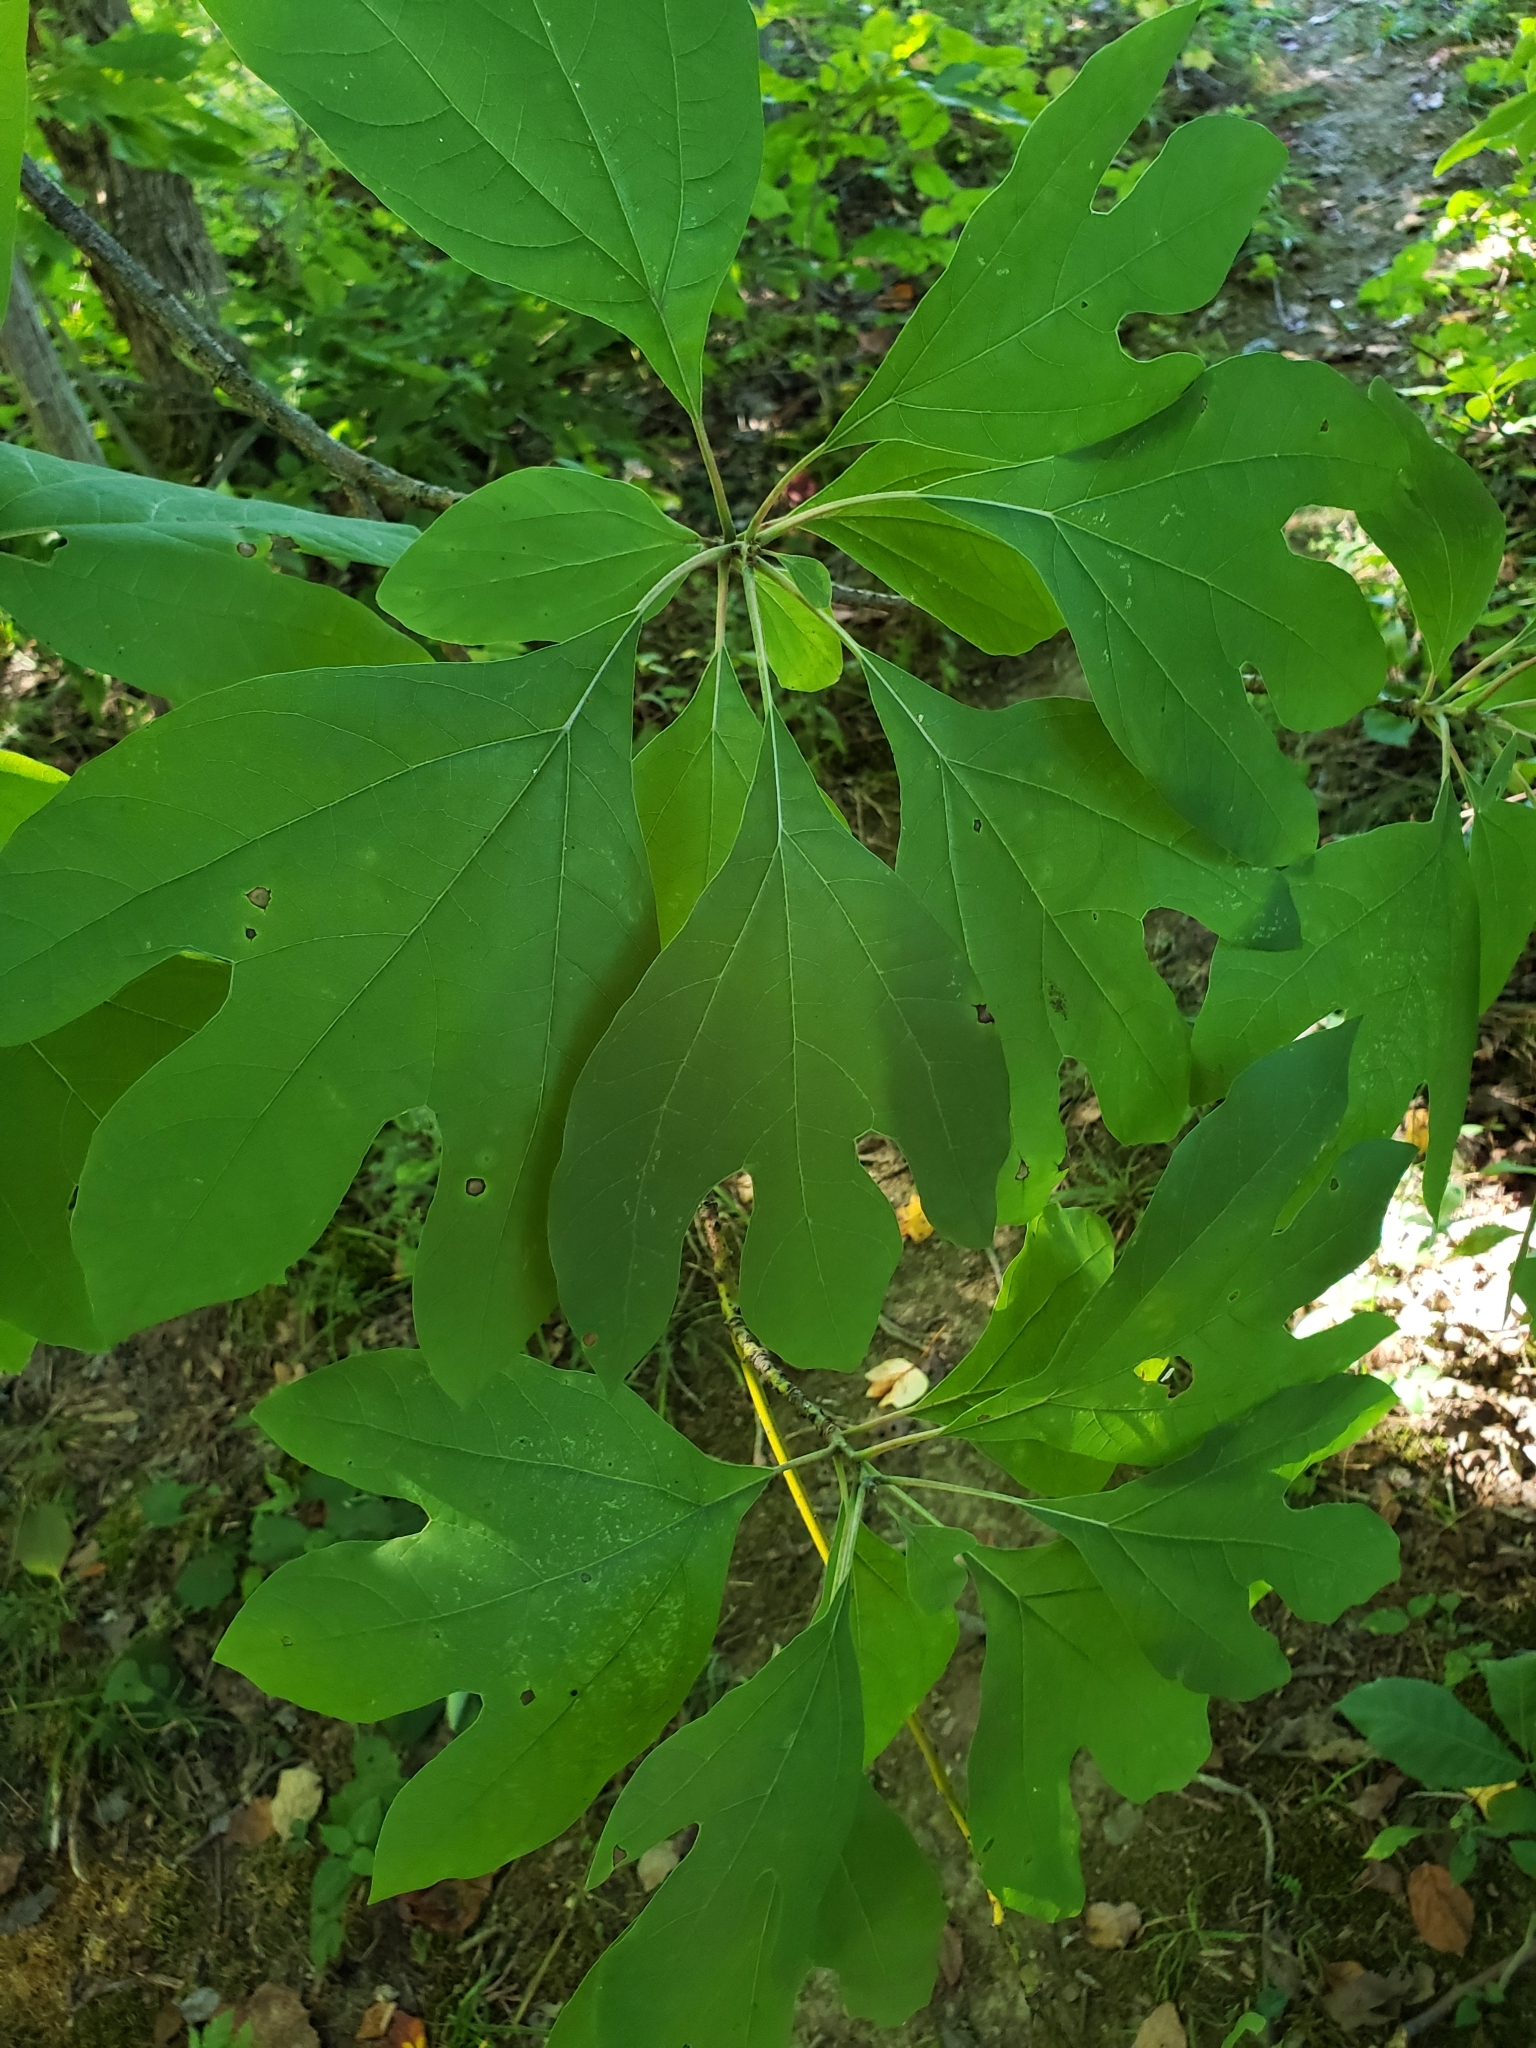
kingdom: Plantae
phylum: Tracheophyta
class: Magnoliopsida
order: Laurales
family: Lauraceae
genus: Sassafras
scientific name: Sassafras albidum
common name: Sassafras
